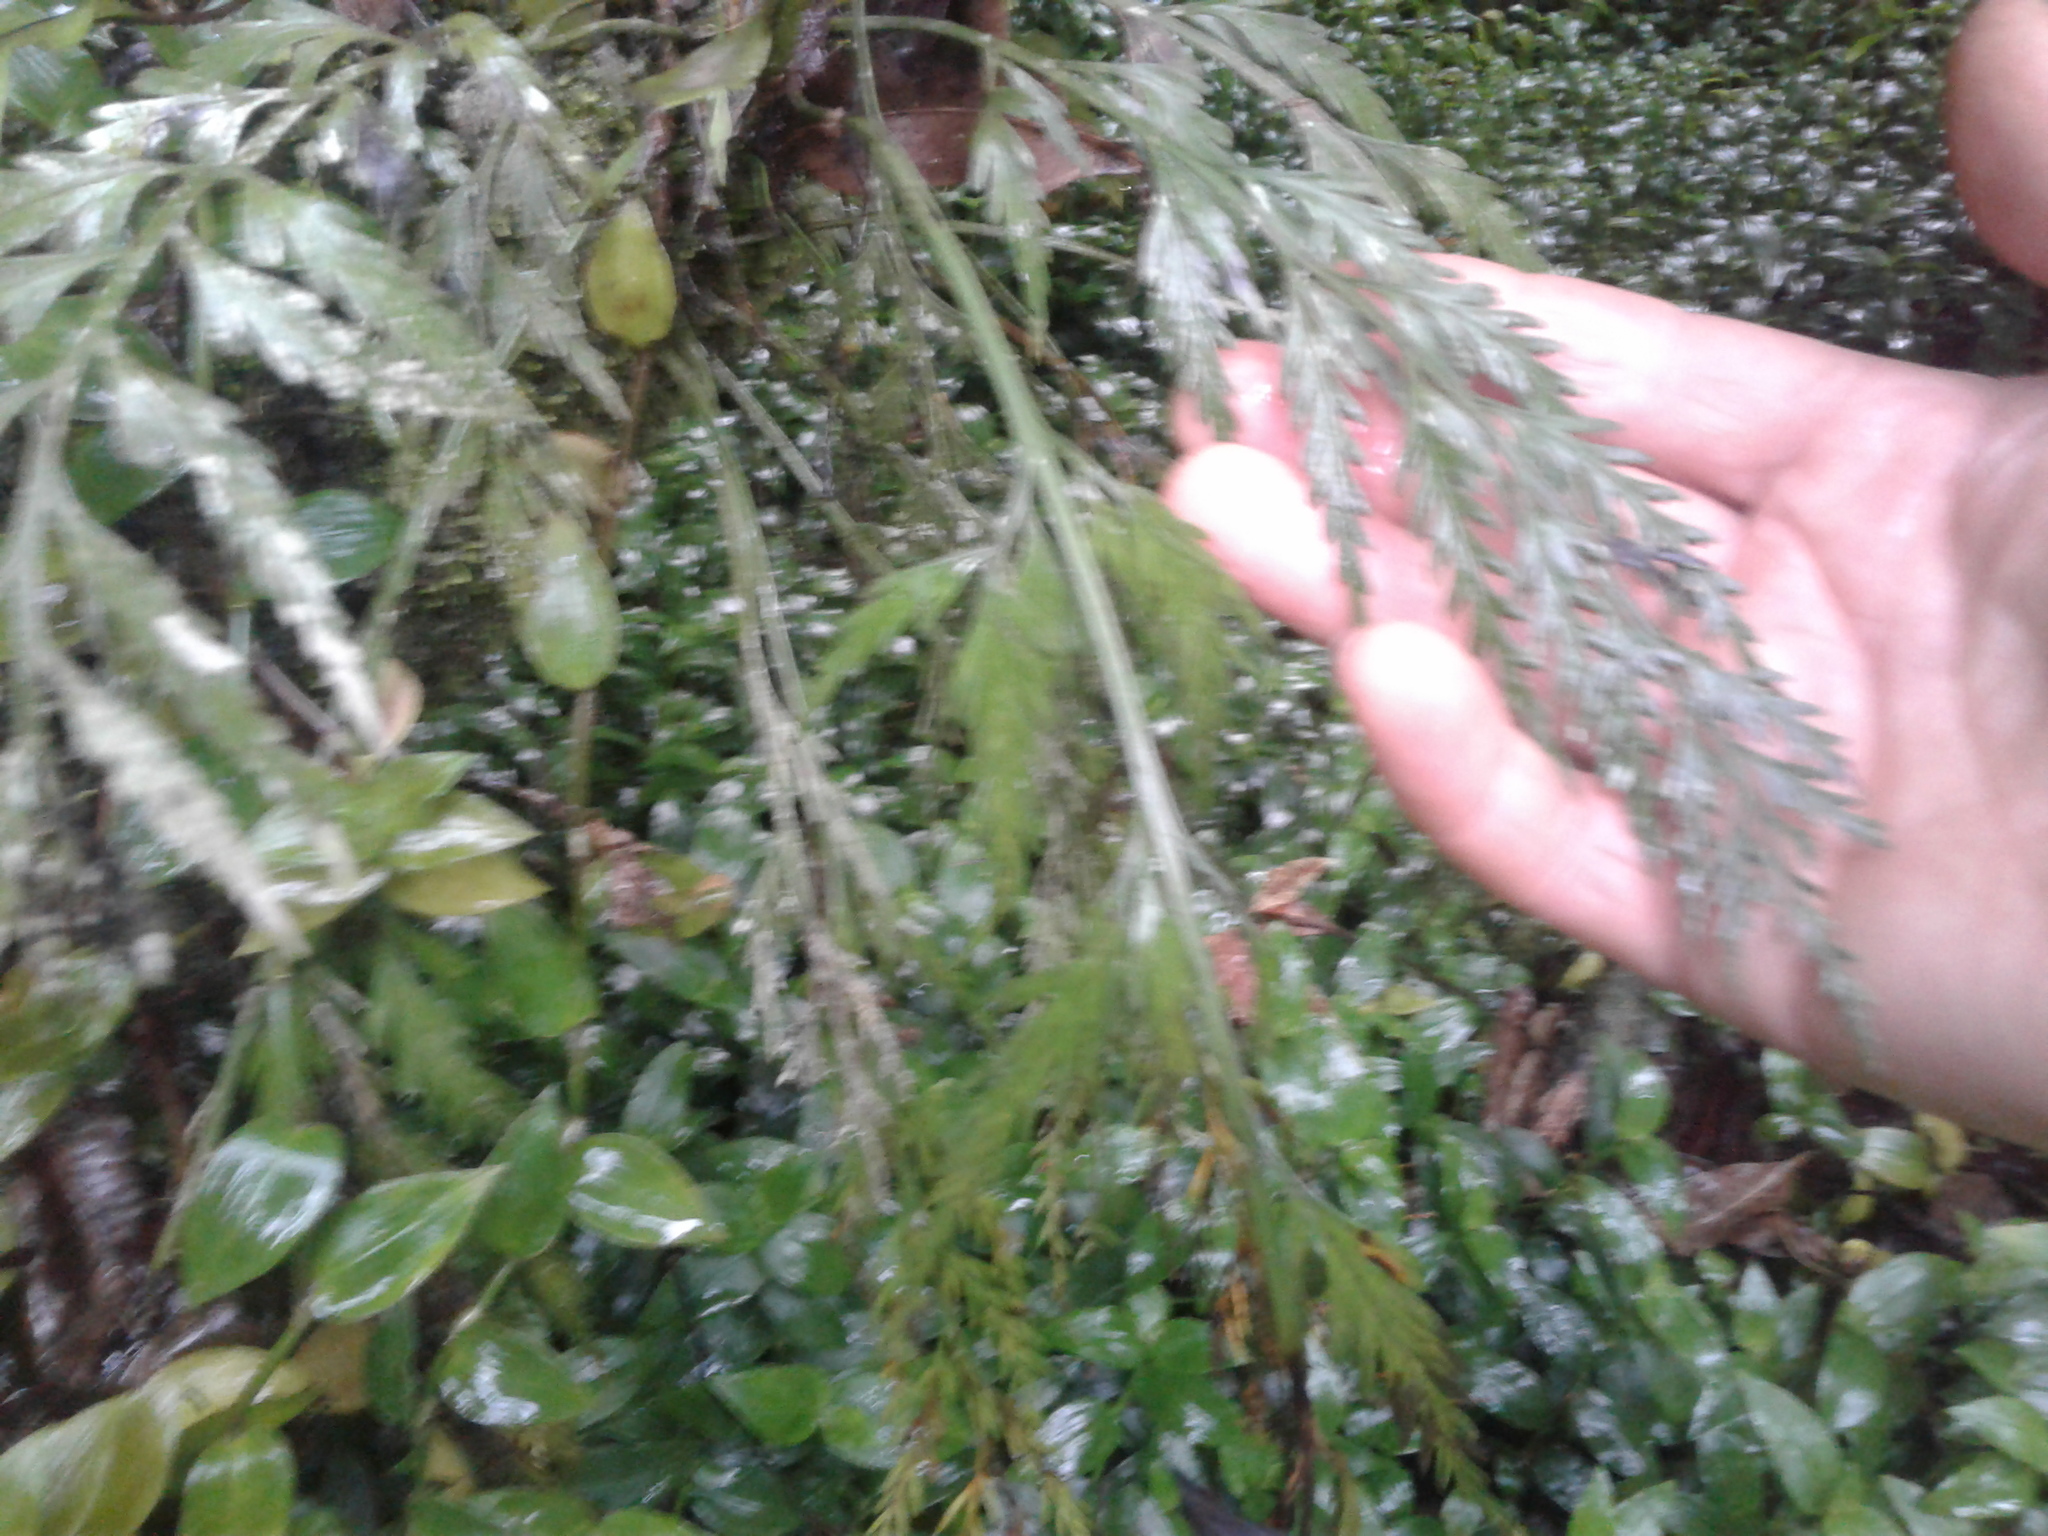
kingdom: Plantae
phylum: Tracheophyta
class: Polypodiopsida
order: Polypodiales
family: Aspleniaceae
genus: Asplenium
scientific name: Asplenium flaccidum
